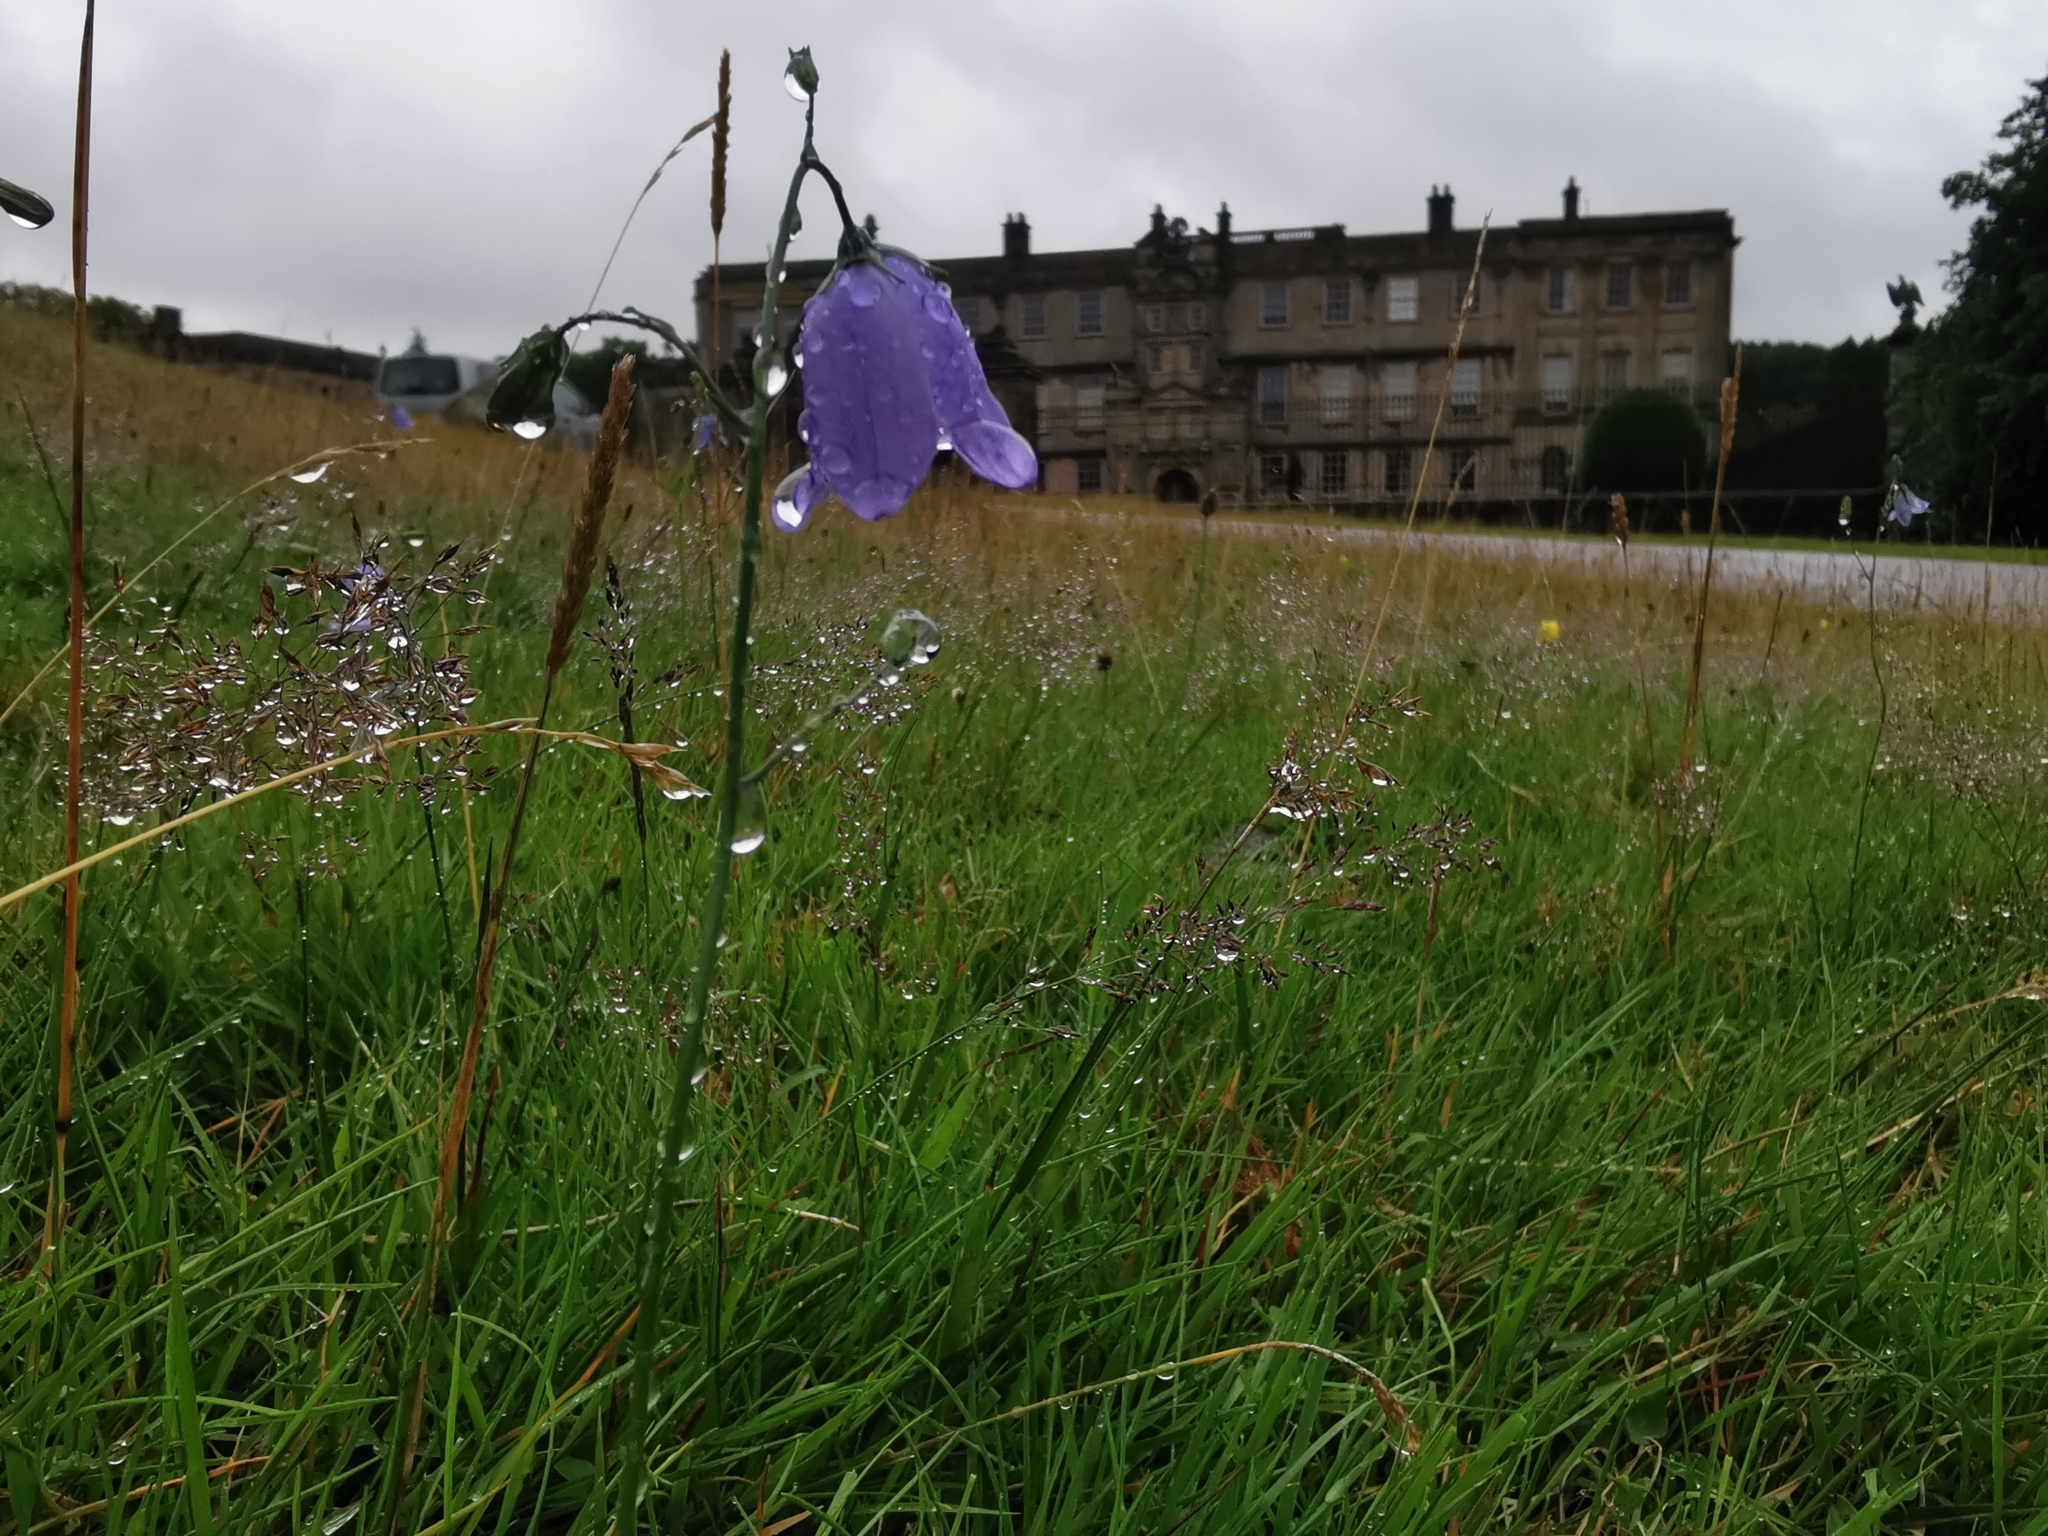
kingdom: Plantae
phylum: Tracheophyta
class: Magnoliopsida
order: Asterales
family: Campanulaceae
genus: Campanula
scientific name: Campanula rotundifolia
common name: Harebell
